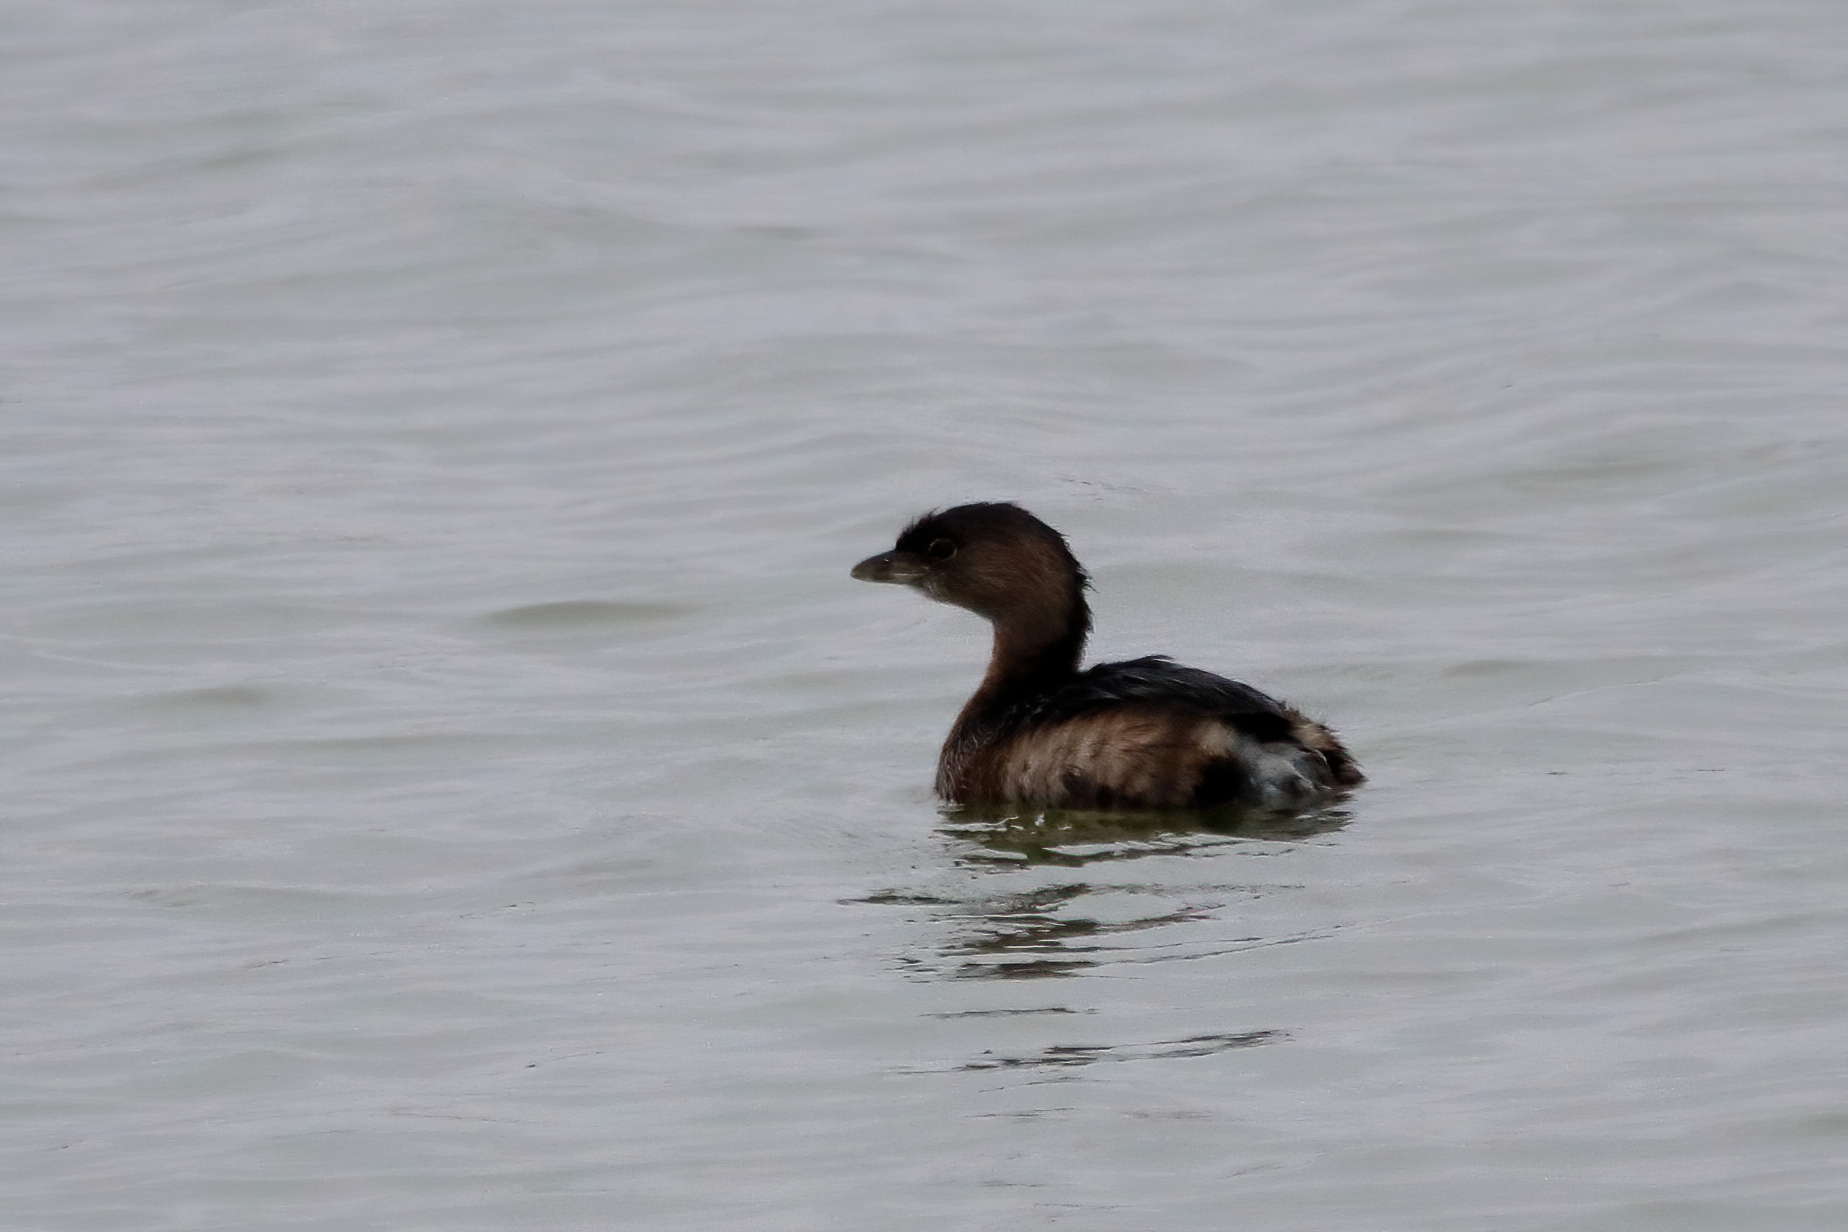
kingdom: Animalia
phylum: Chordata
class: Aves
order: Podicipediformes
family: Podicipedidae
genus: Podilymbus
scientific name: Podilymbus podiceps
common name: Pied-billed grebe
